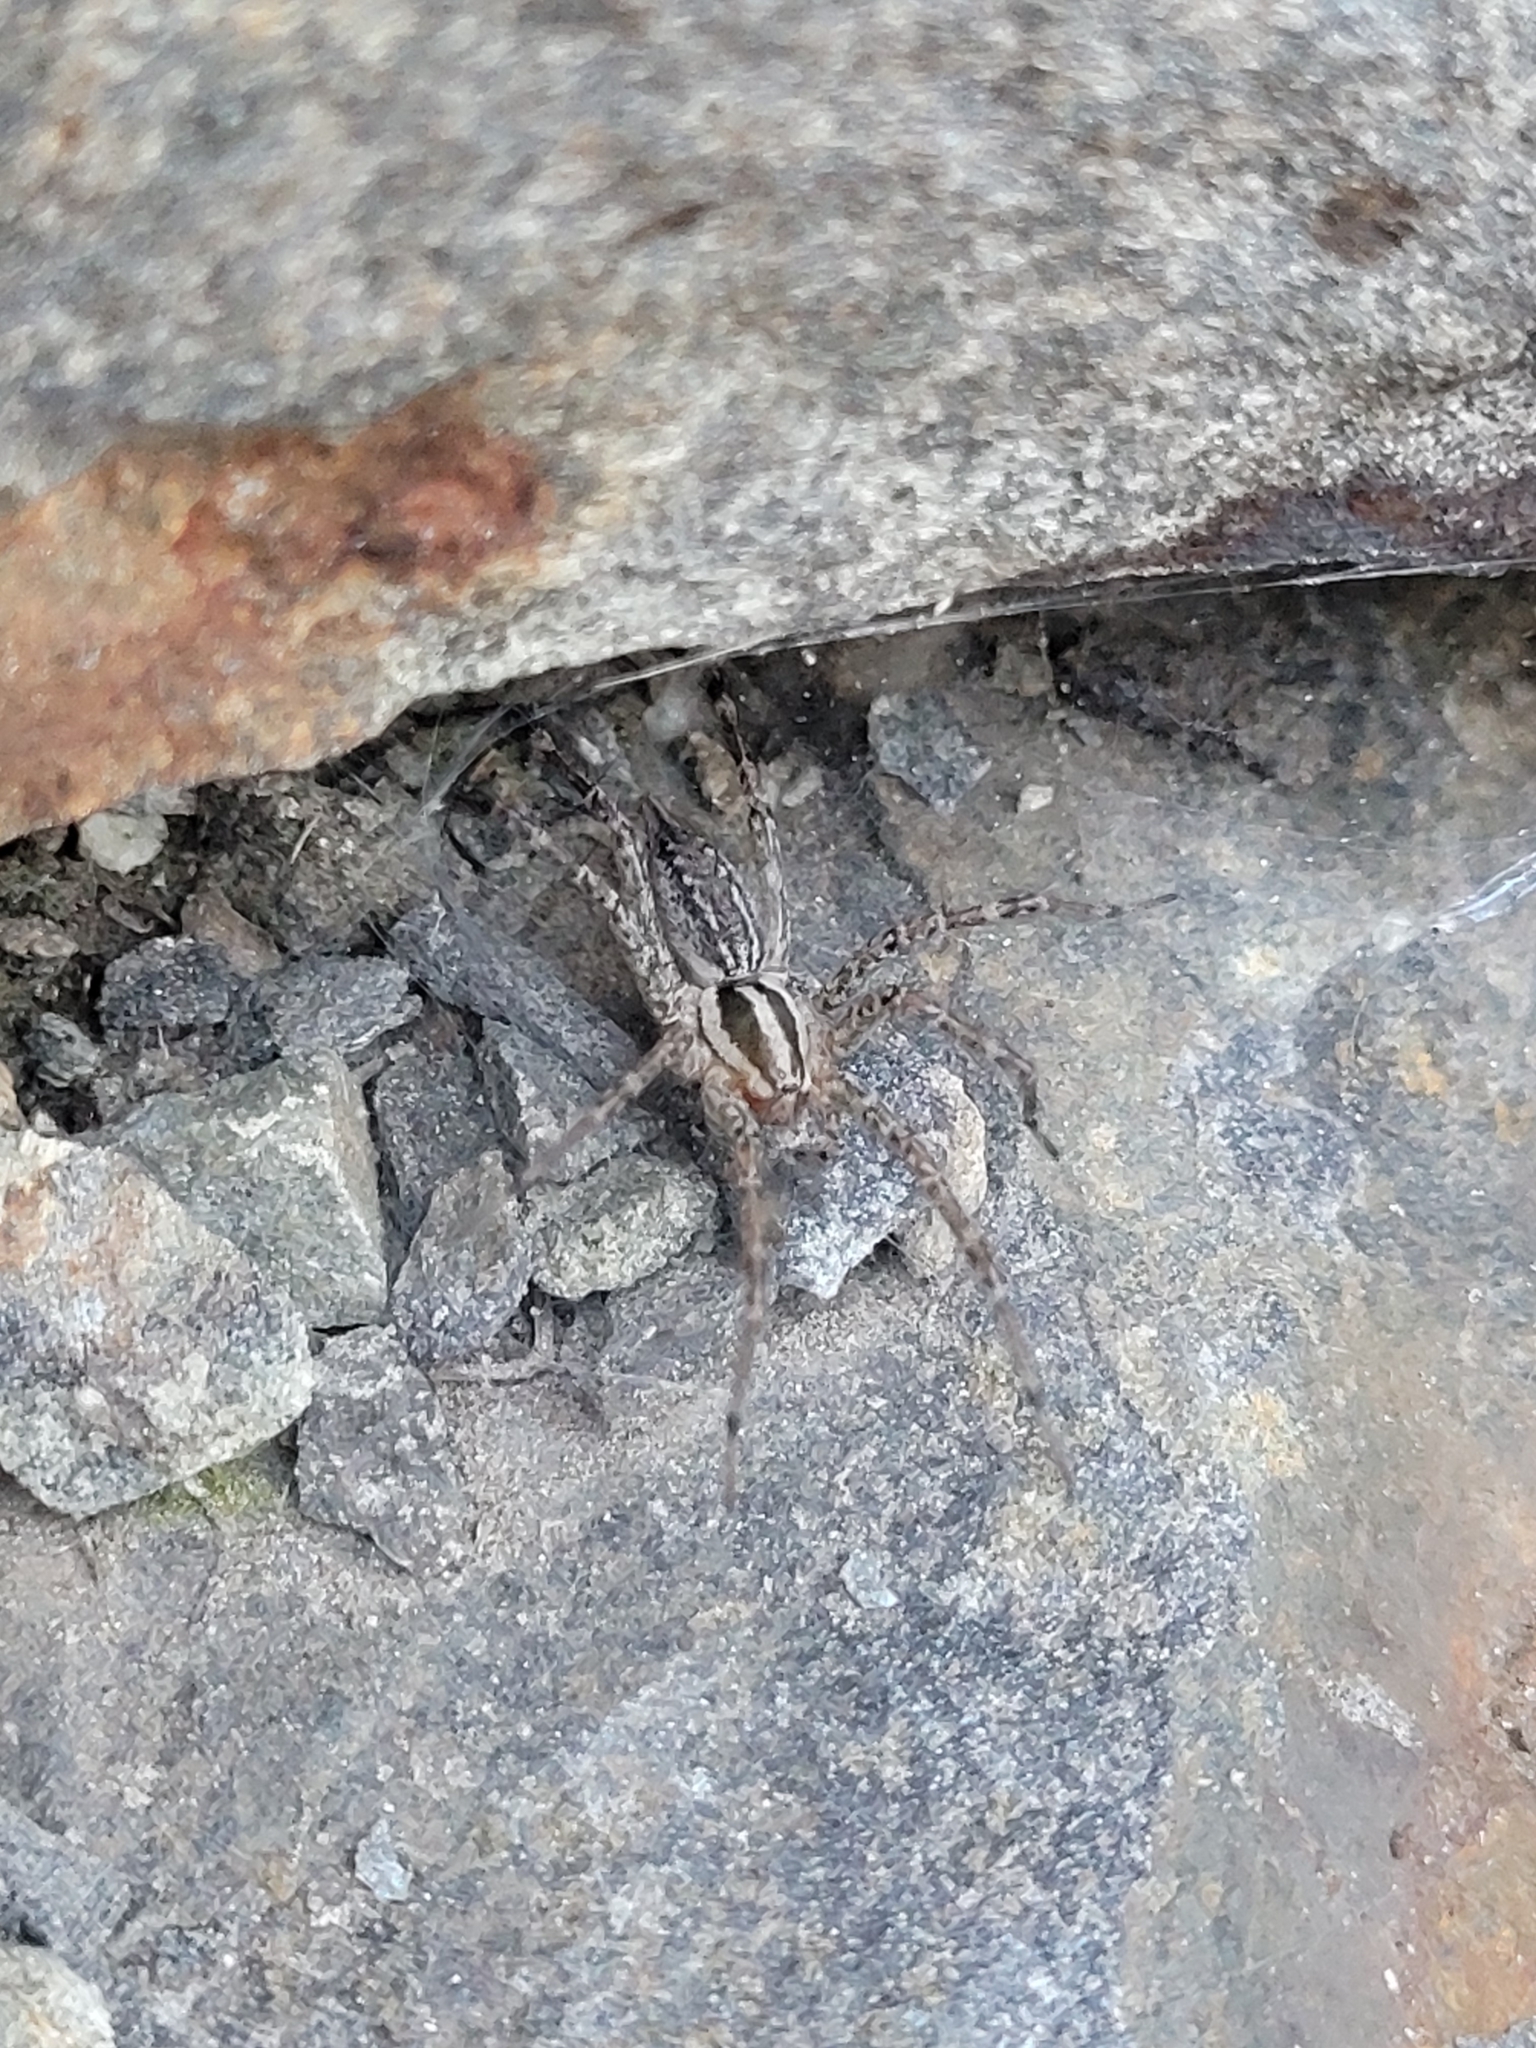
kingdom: Animalia
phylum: Arthropoda
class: Arachnida
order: Araneae
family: Agelenidae
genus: Agelenopsis
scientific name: Agelenopsis
